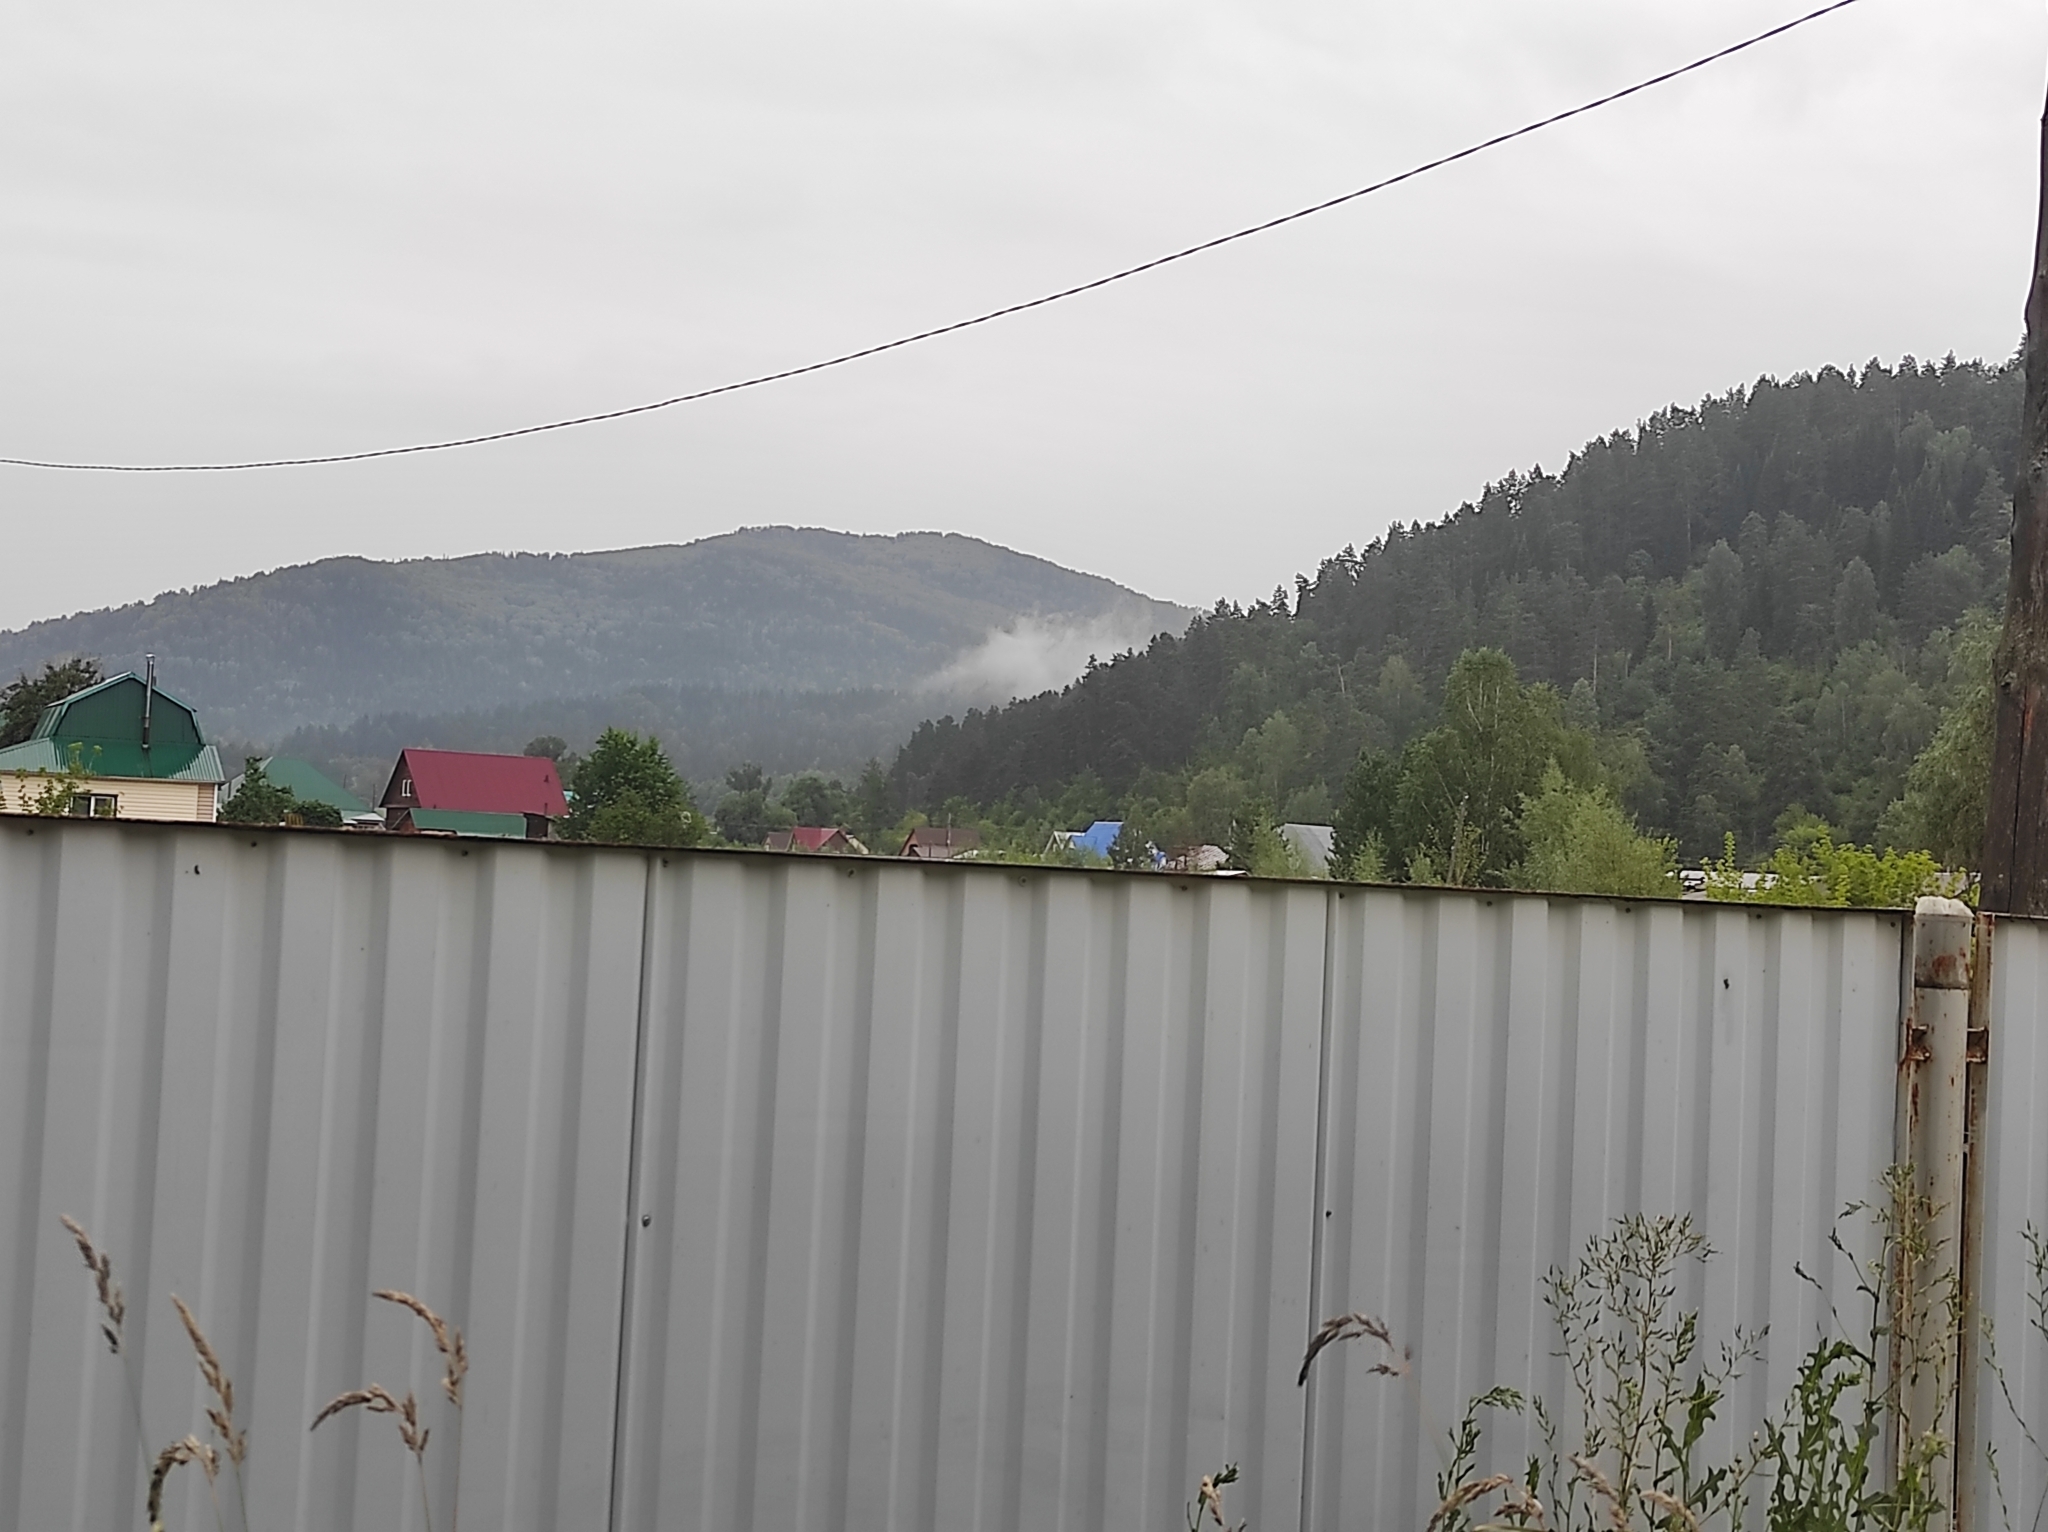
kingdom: Plantae
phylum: Tracheophyta
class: Pinopsida
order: Pinales
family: Pinaceae
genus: Pinus
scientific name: Pinus sylvestris
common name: Scots pine
